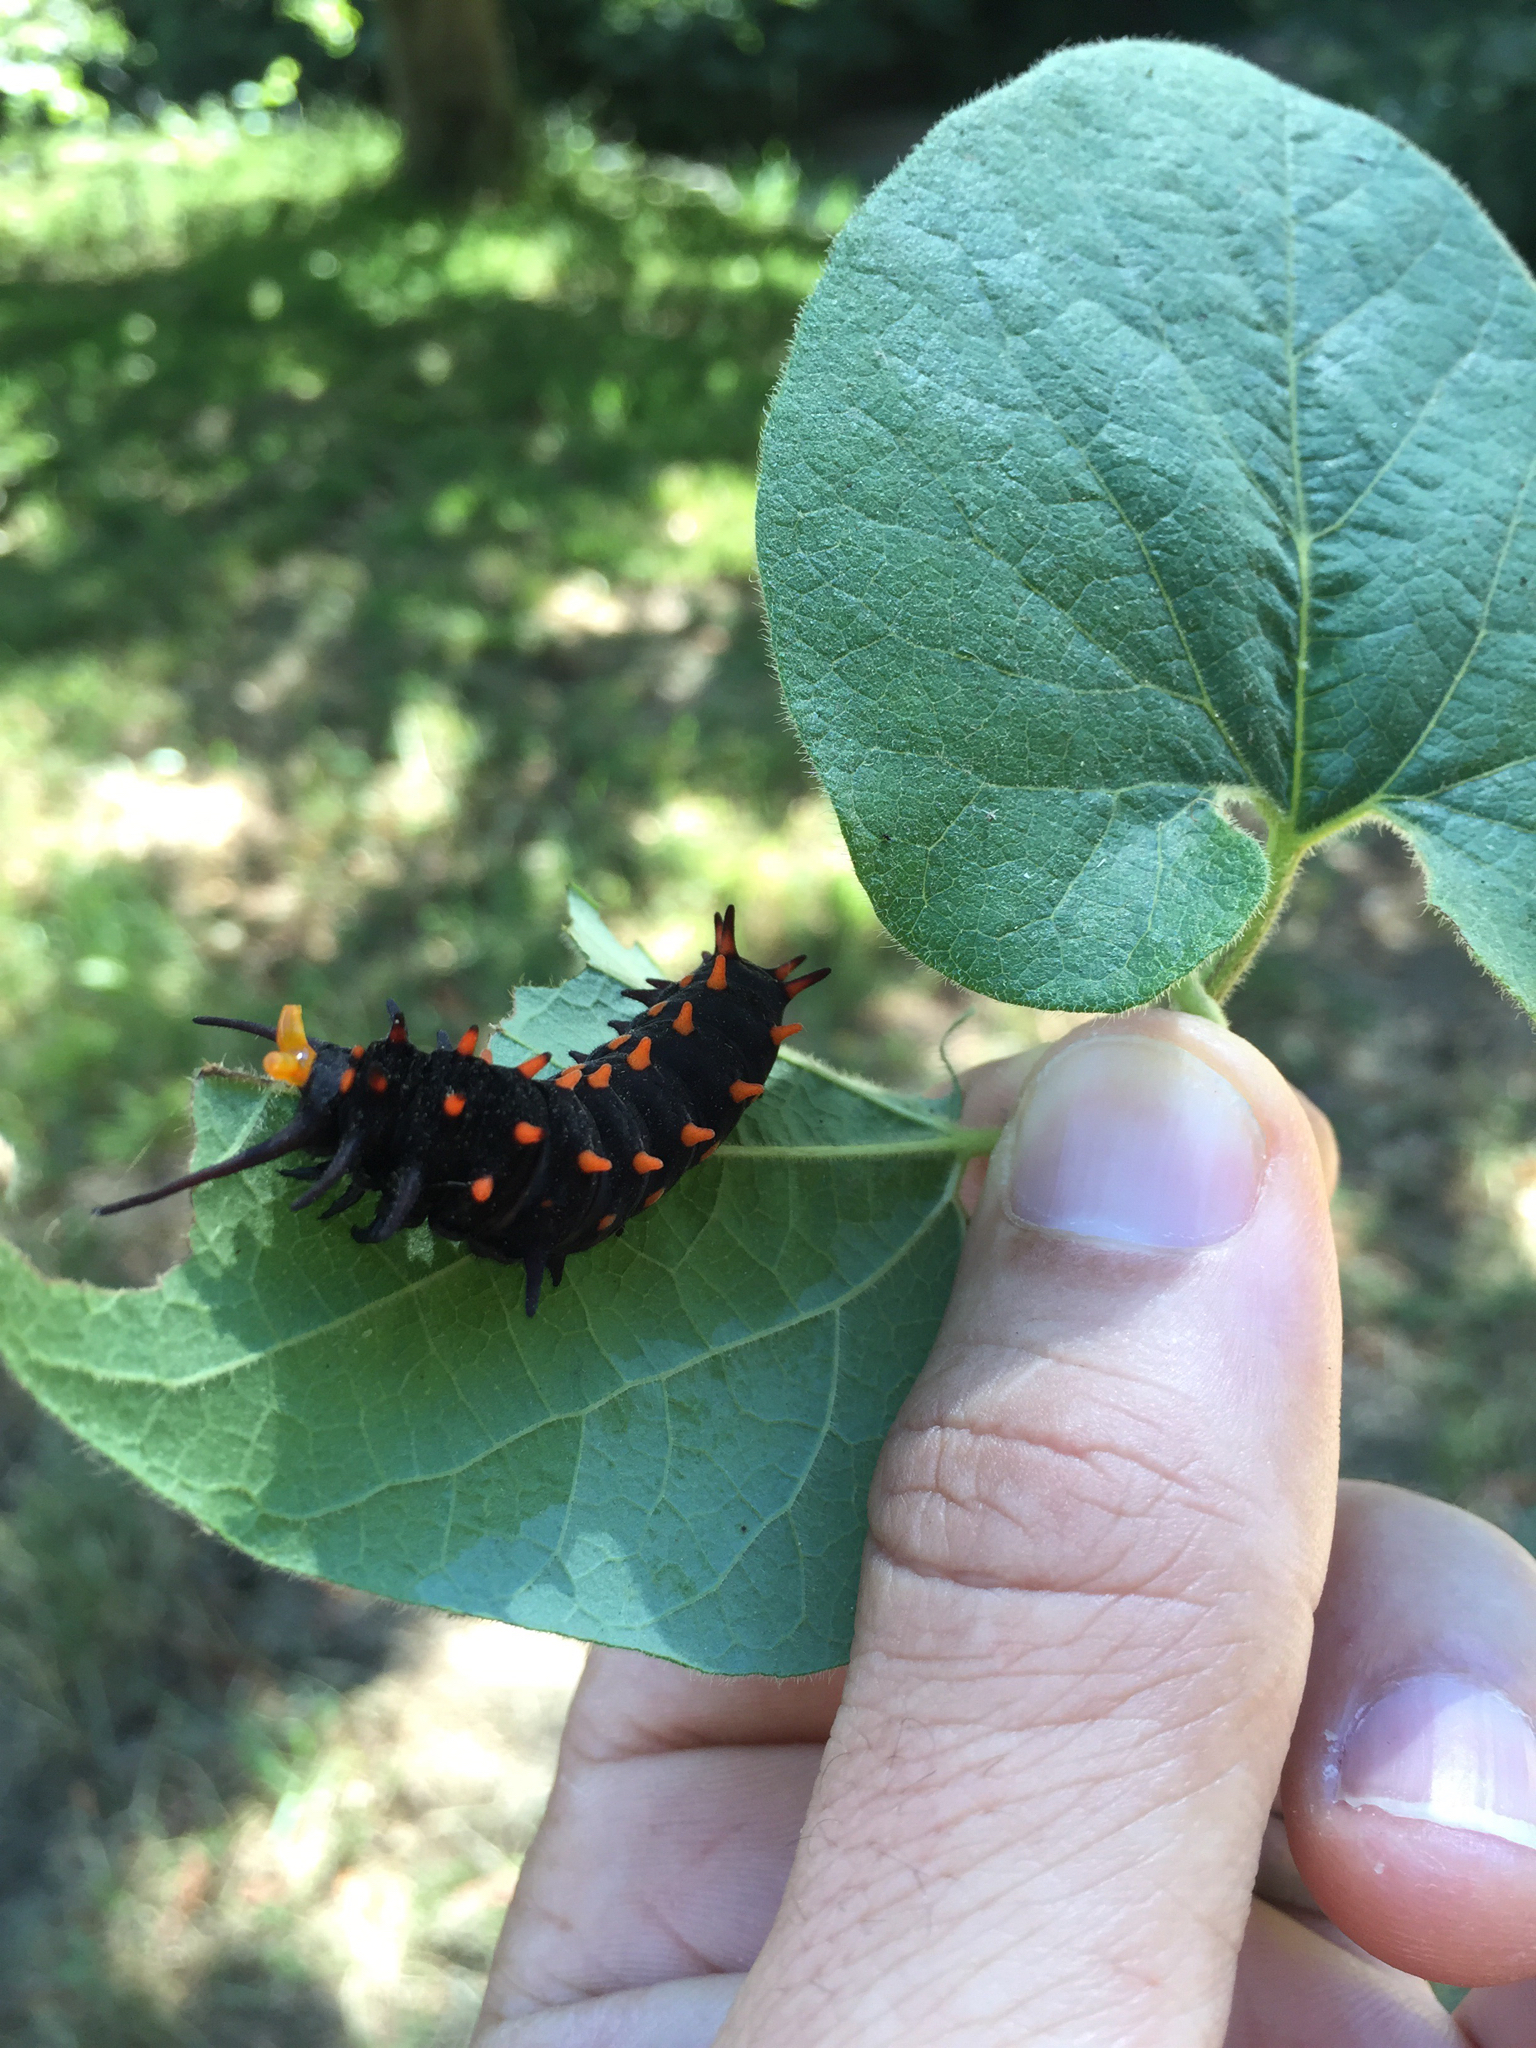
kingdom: Animalia
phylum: Arthropoda
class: Insecta
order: Lepidoptera
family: Papilionidae
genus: Battus
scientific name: Battus philenor
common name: Pipevine swallowtail
